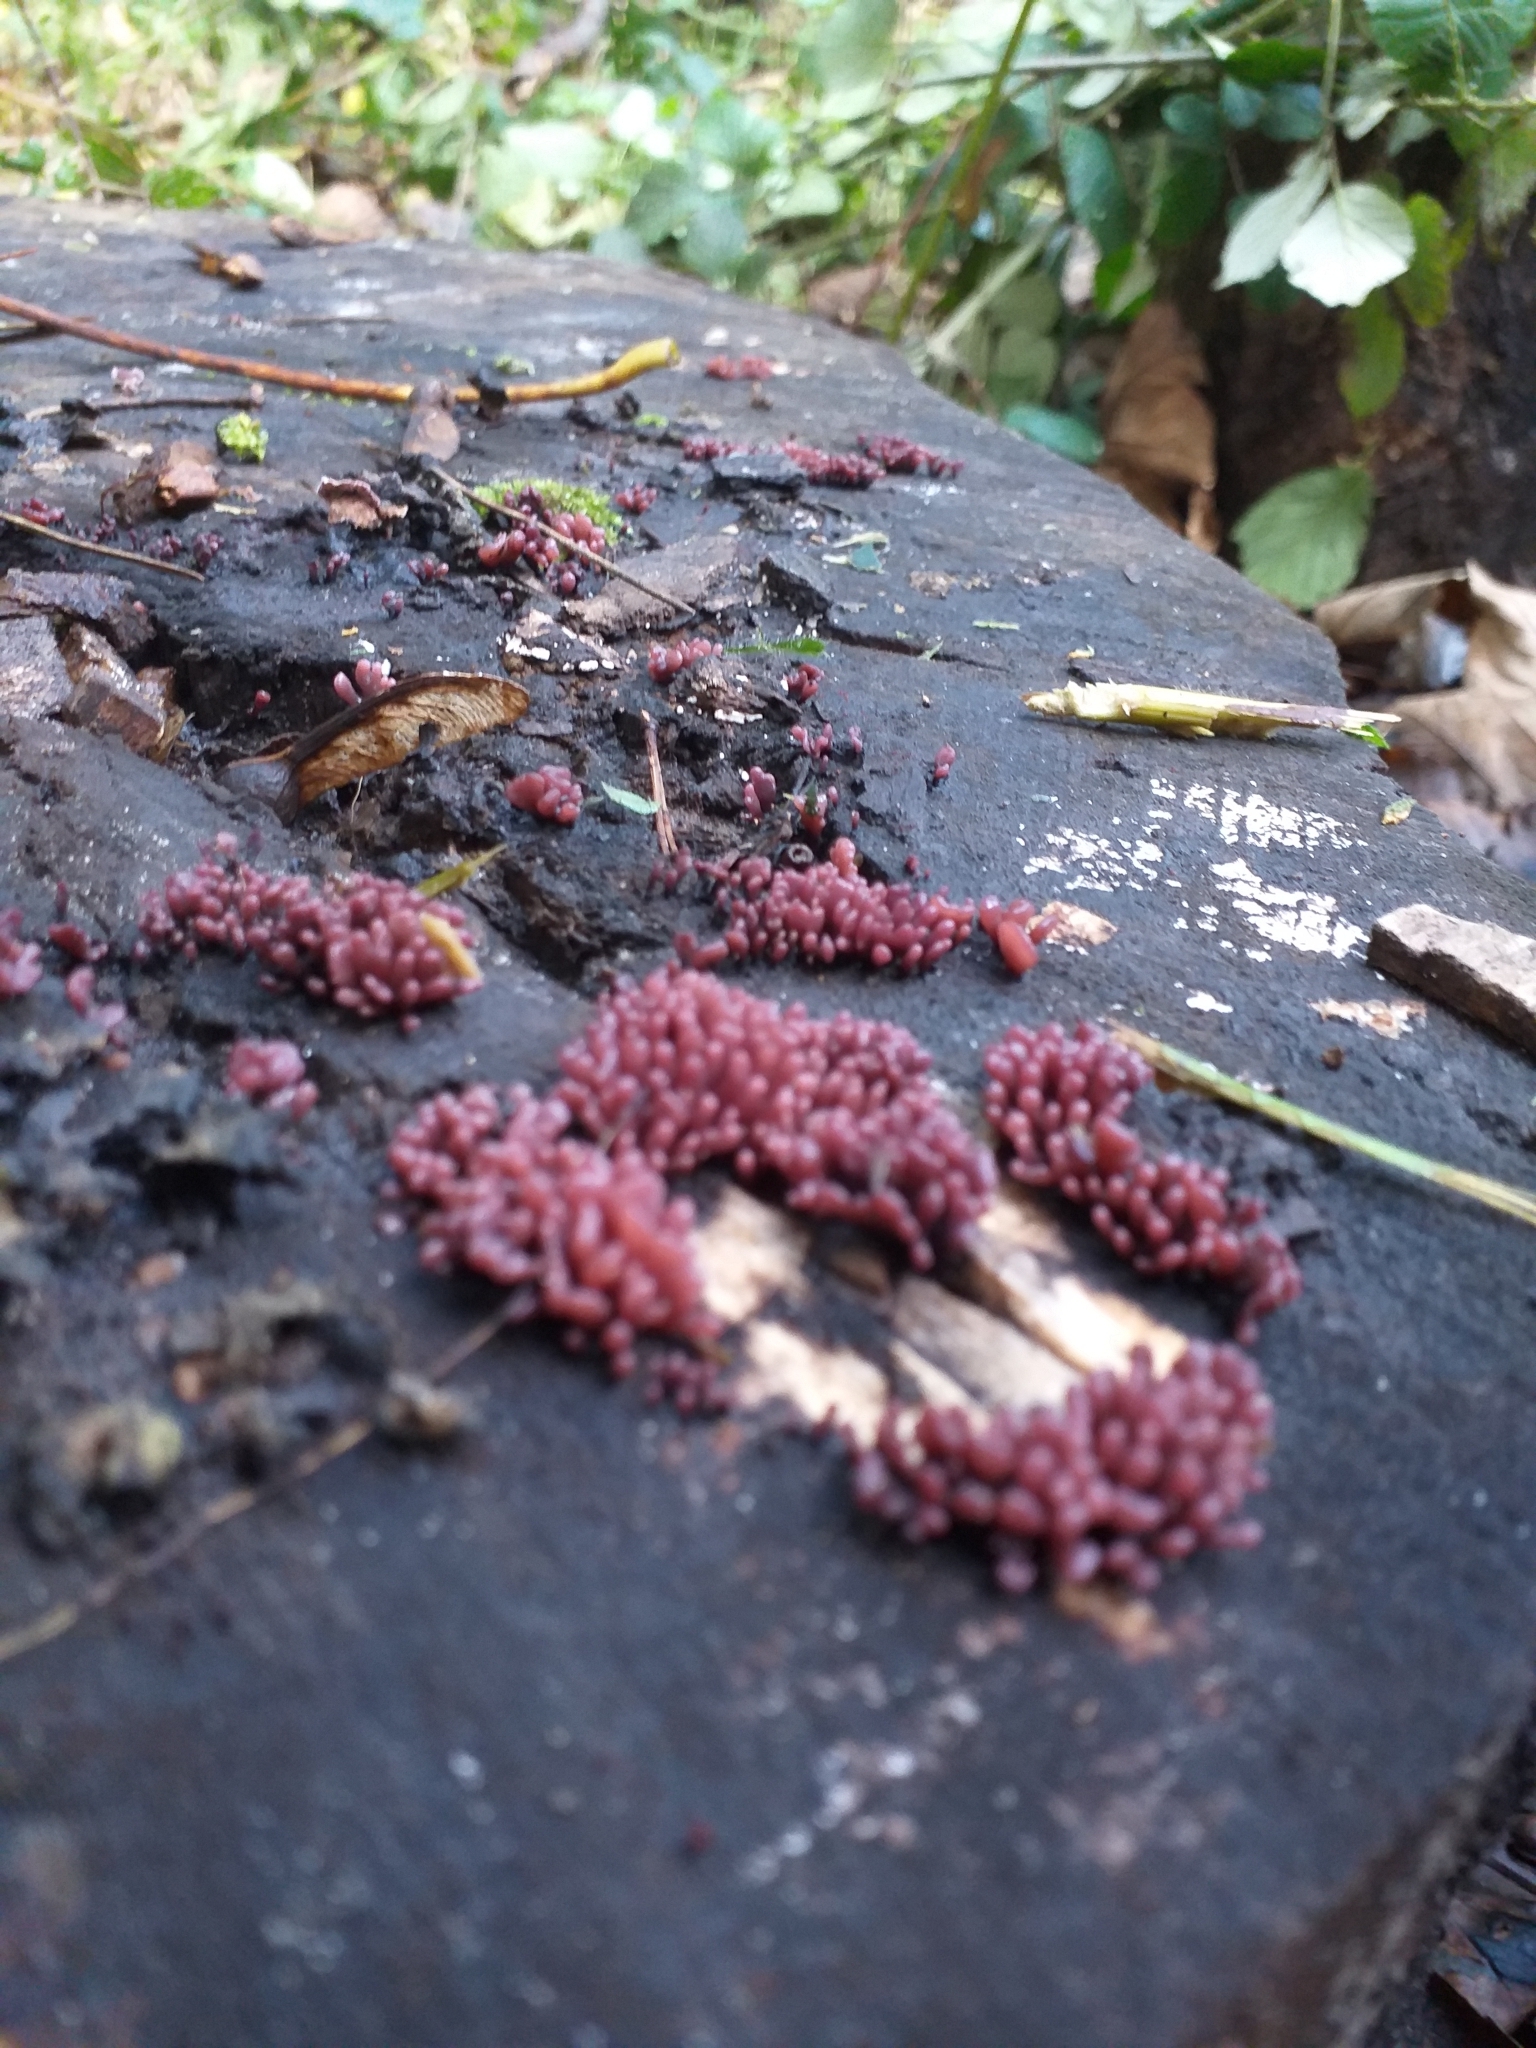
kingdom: Fungi
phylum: Ascomycota
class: Leotiomycetes
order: Helotiales
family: Gelatinodiscaceae
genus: Ascocoryne
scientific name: Ascocoryne sarcoides
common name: Purple jellydisc
